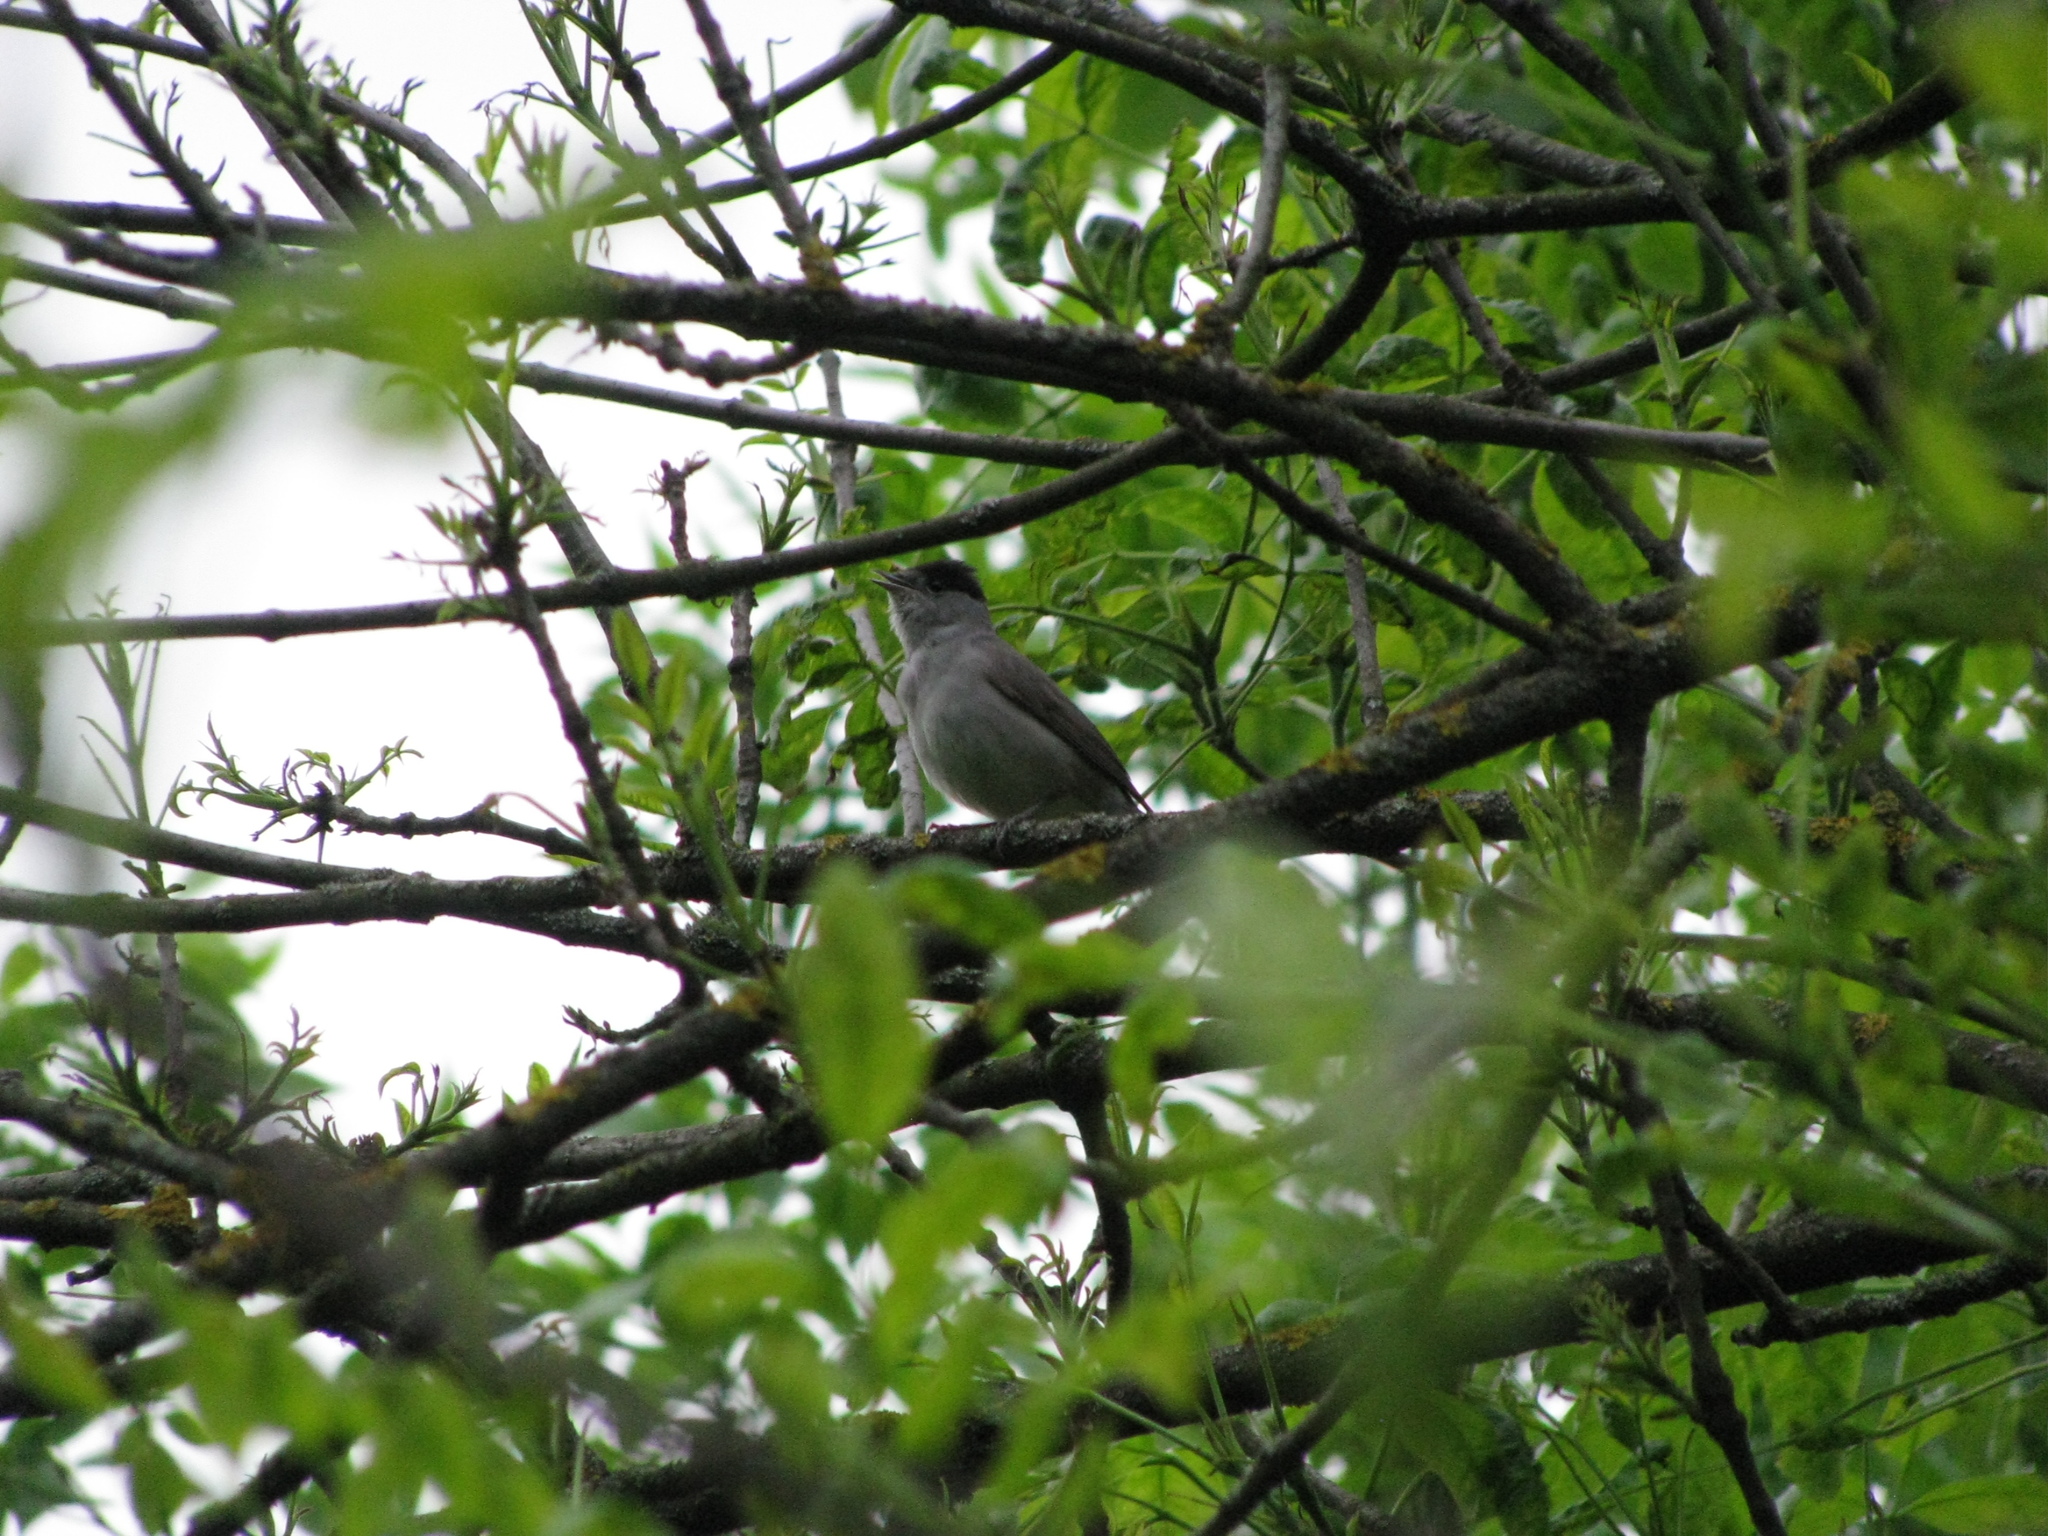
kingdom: Animalia
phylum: Chordata
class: Aves
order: Passeriformes
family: Sylviidae
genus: Sylvia
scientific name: Sylvia atricapilla
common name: Eurasian blackcap
